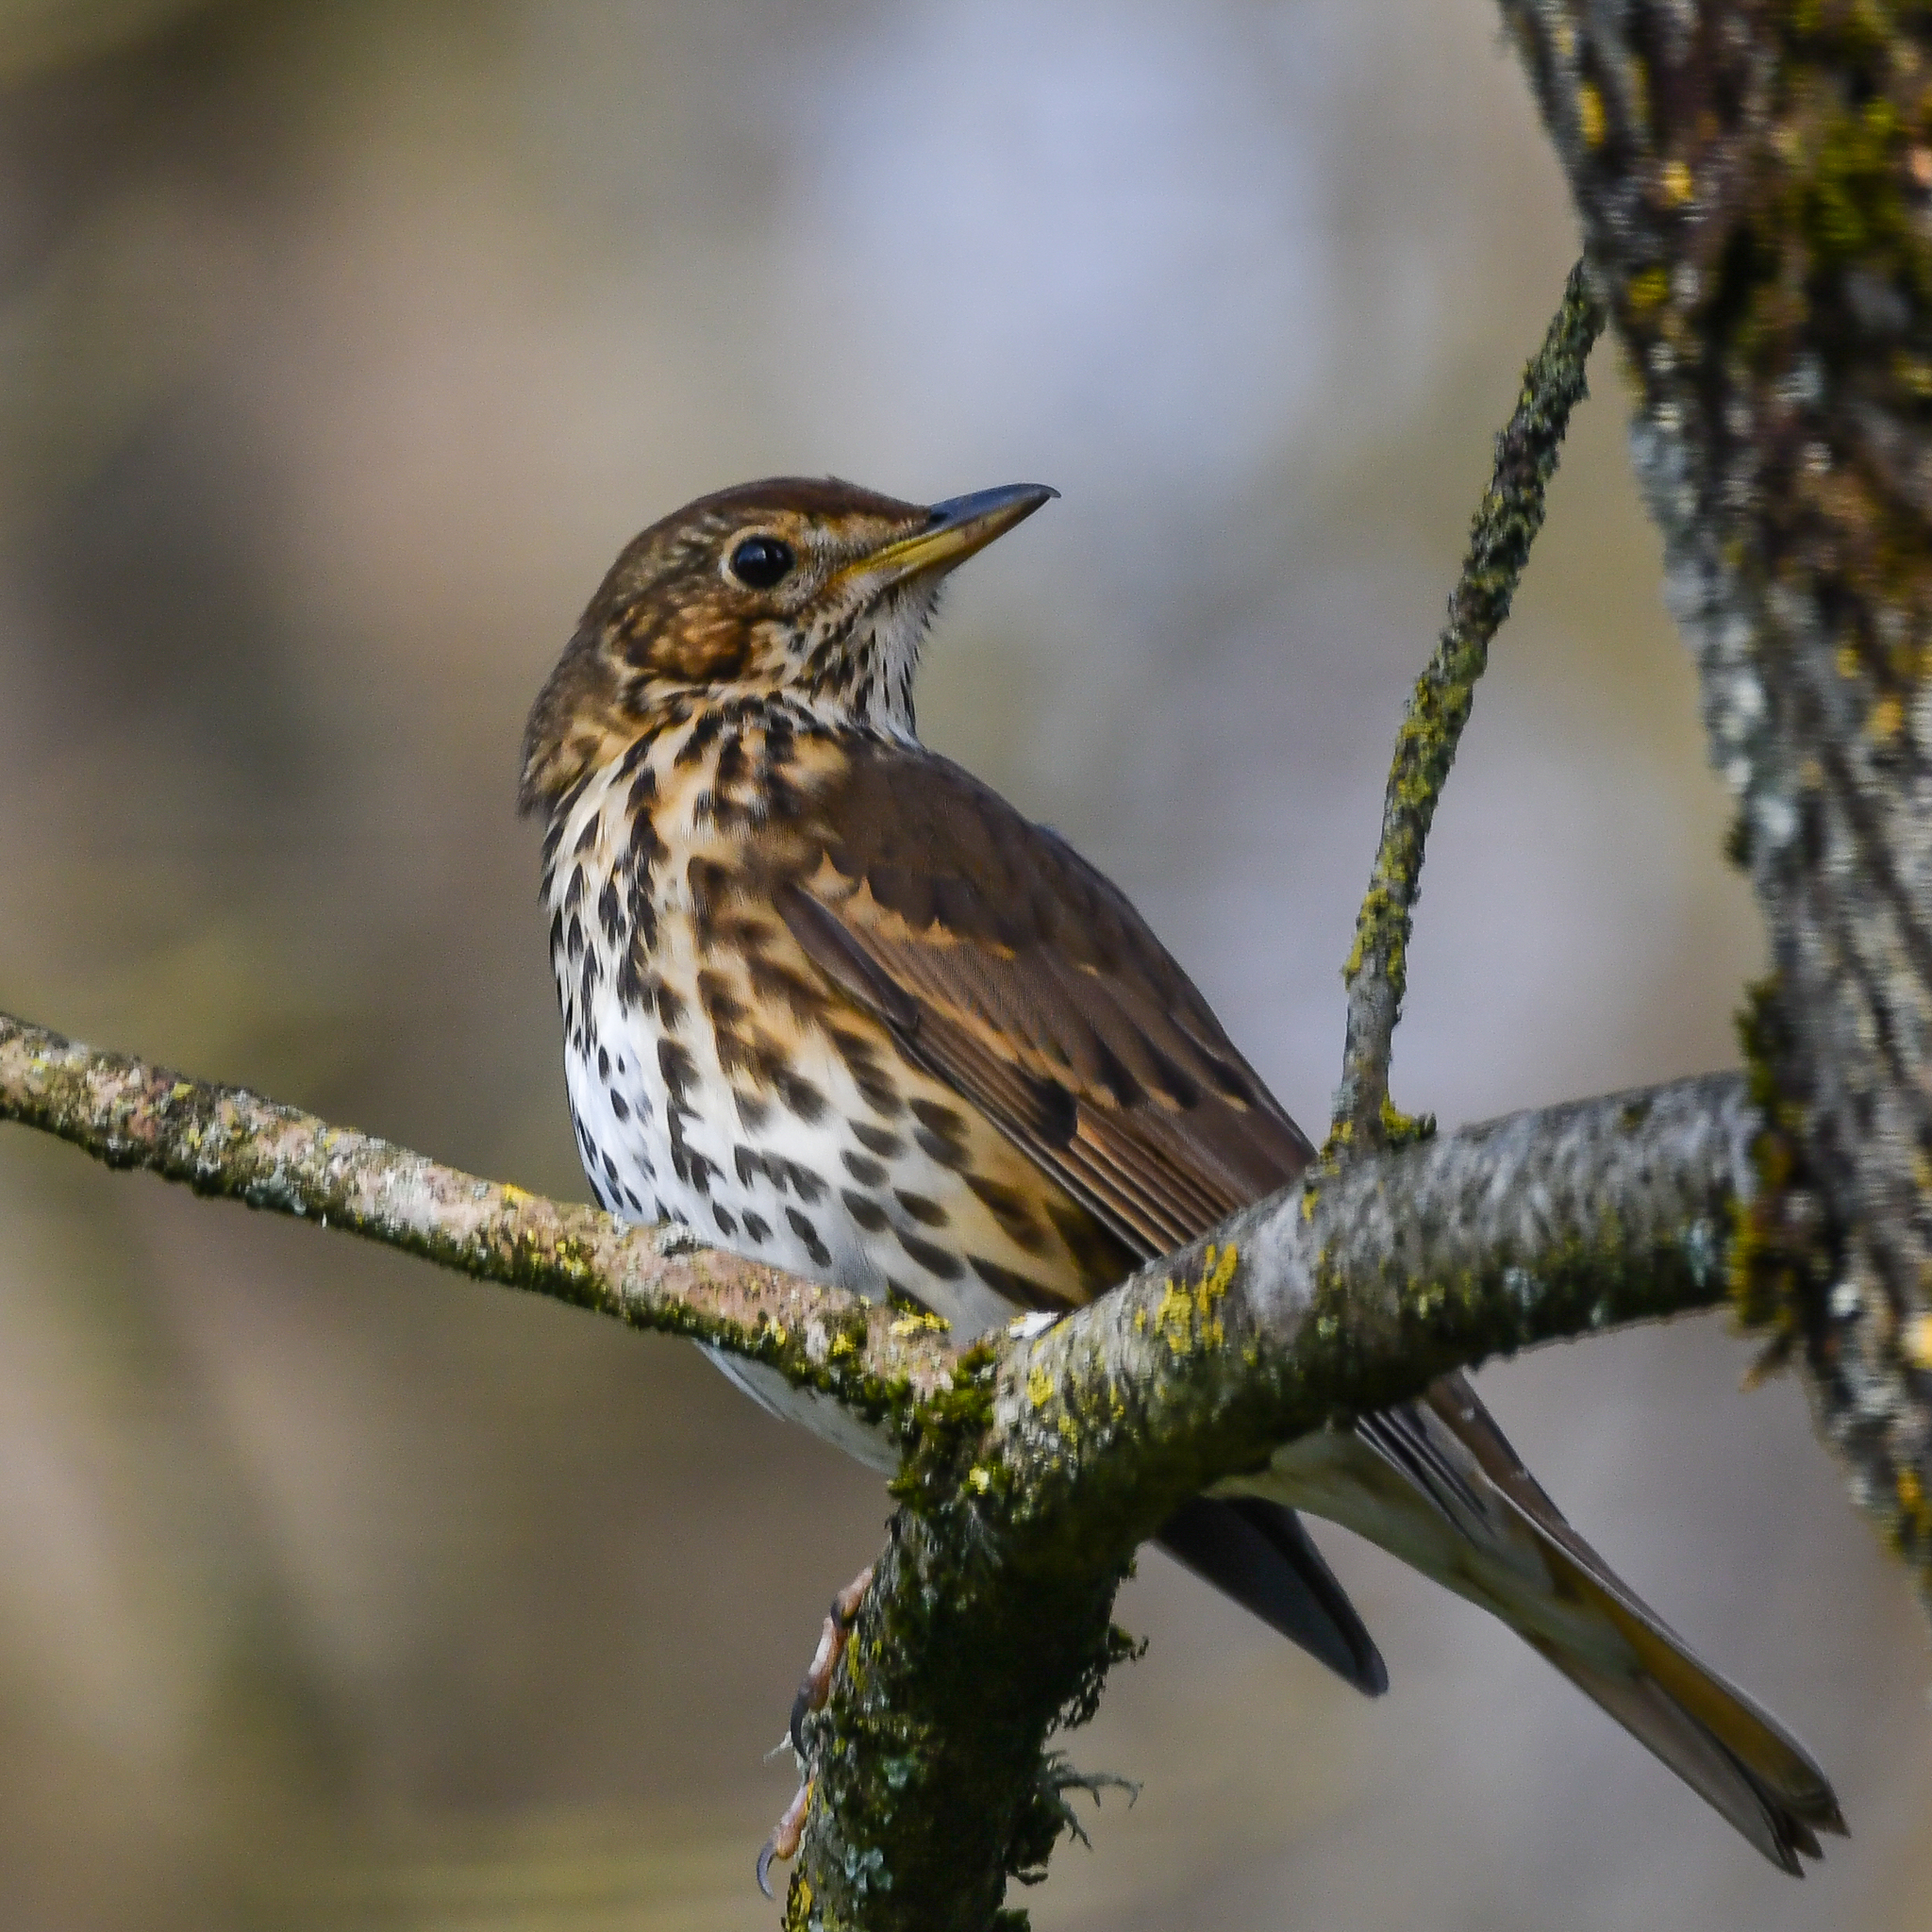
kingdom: Animalia
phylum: Chordata
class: Aves
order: Passeriformes
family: Turdidae
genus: Turdus
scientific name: Turdus philomelos
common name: Song thrush
